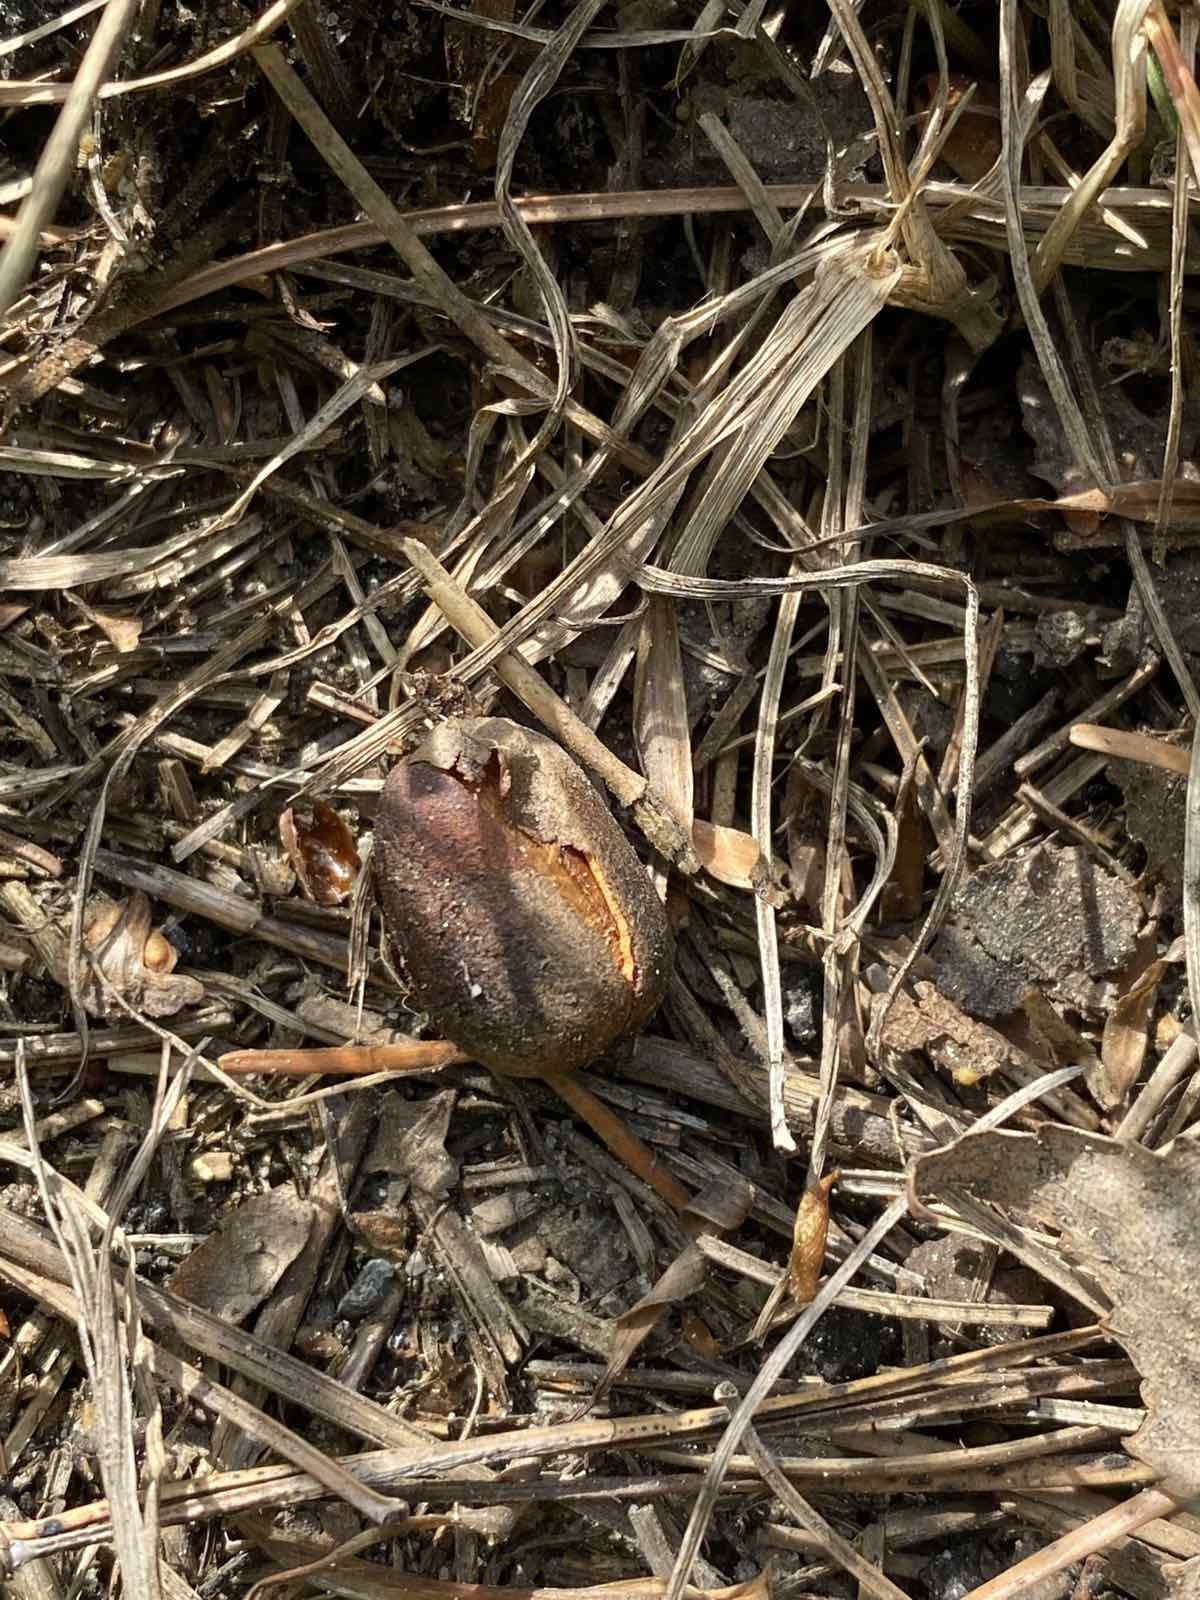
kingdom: Plantae
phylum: Tracheophyta
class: Pinopsida
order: Pinales
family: Pinaceae
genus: Pinus
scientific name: Pinus sibirica
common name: Siberian pine
